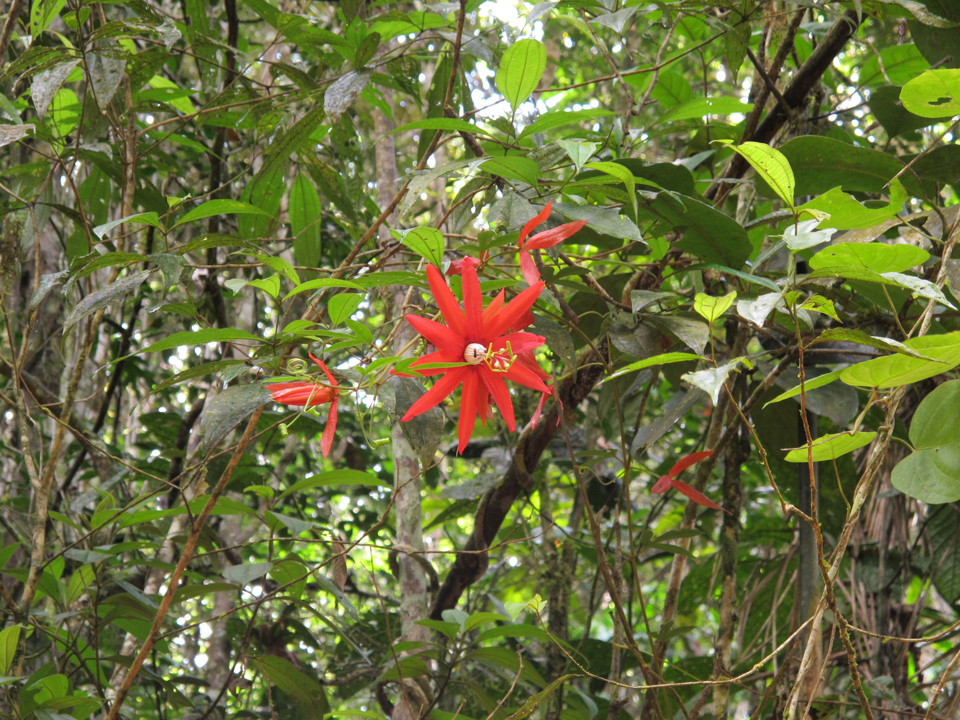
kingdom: Plantae
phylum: Tracheophyta
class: Magnoliopsida
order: Malpighiales
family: Passifloraceae
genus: Passiflora
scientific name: Passiflora margaritae
